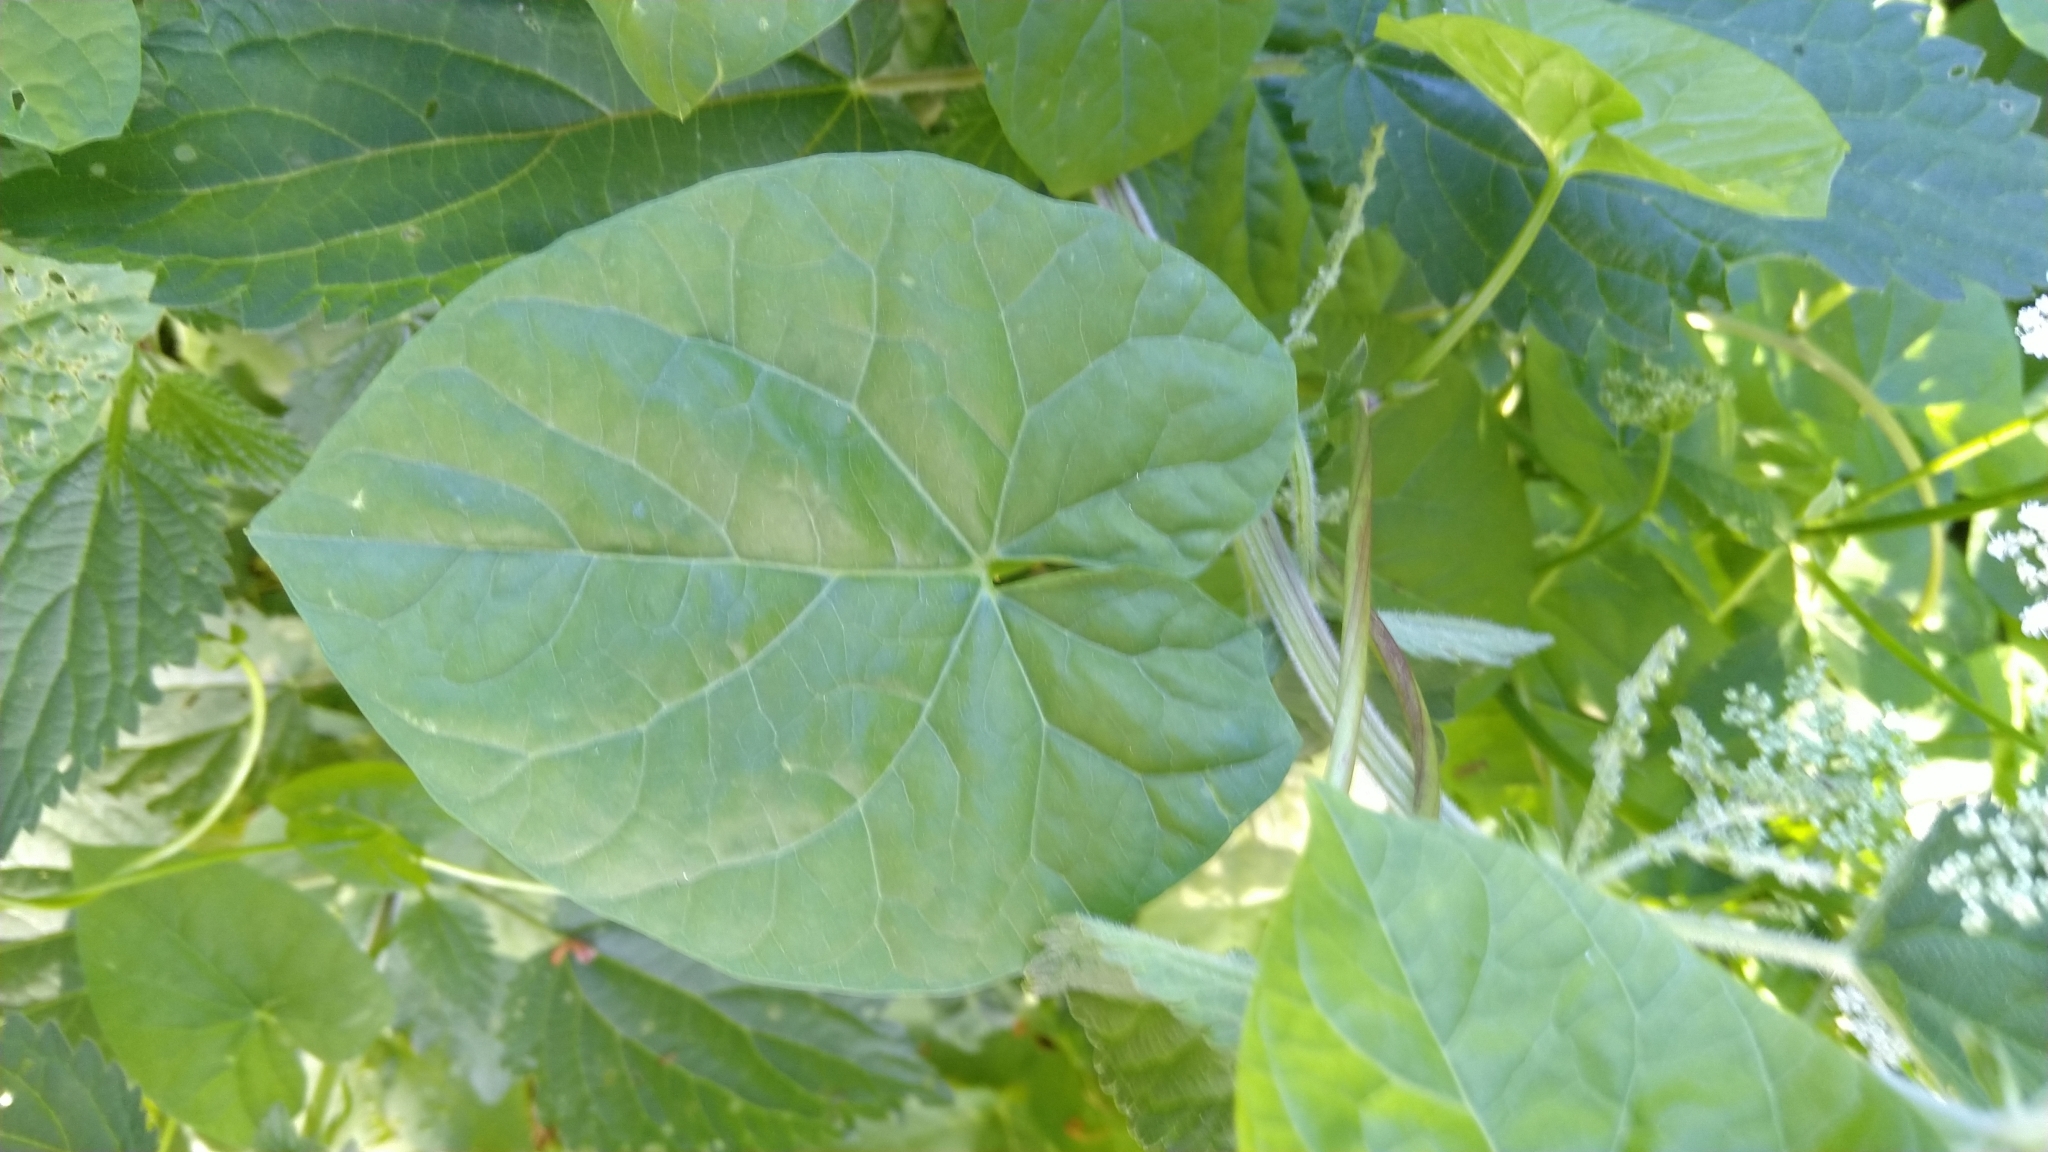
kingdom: Plantae
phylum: Tracheophyta
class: Magnoliopsida
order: Solanales
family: Convolvulaceae
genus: Calystegia
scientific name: Calystegia sepium
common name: Hedge bindweed
